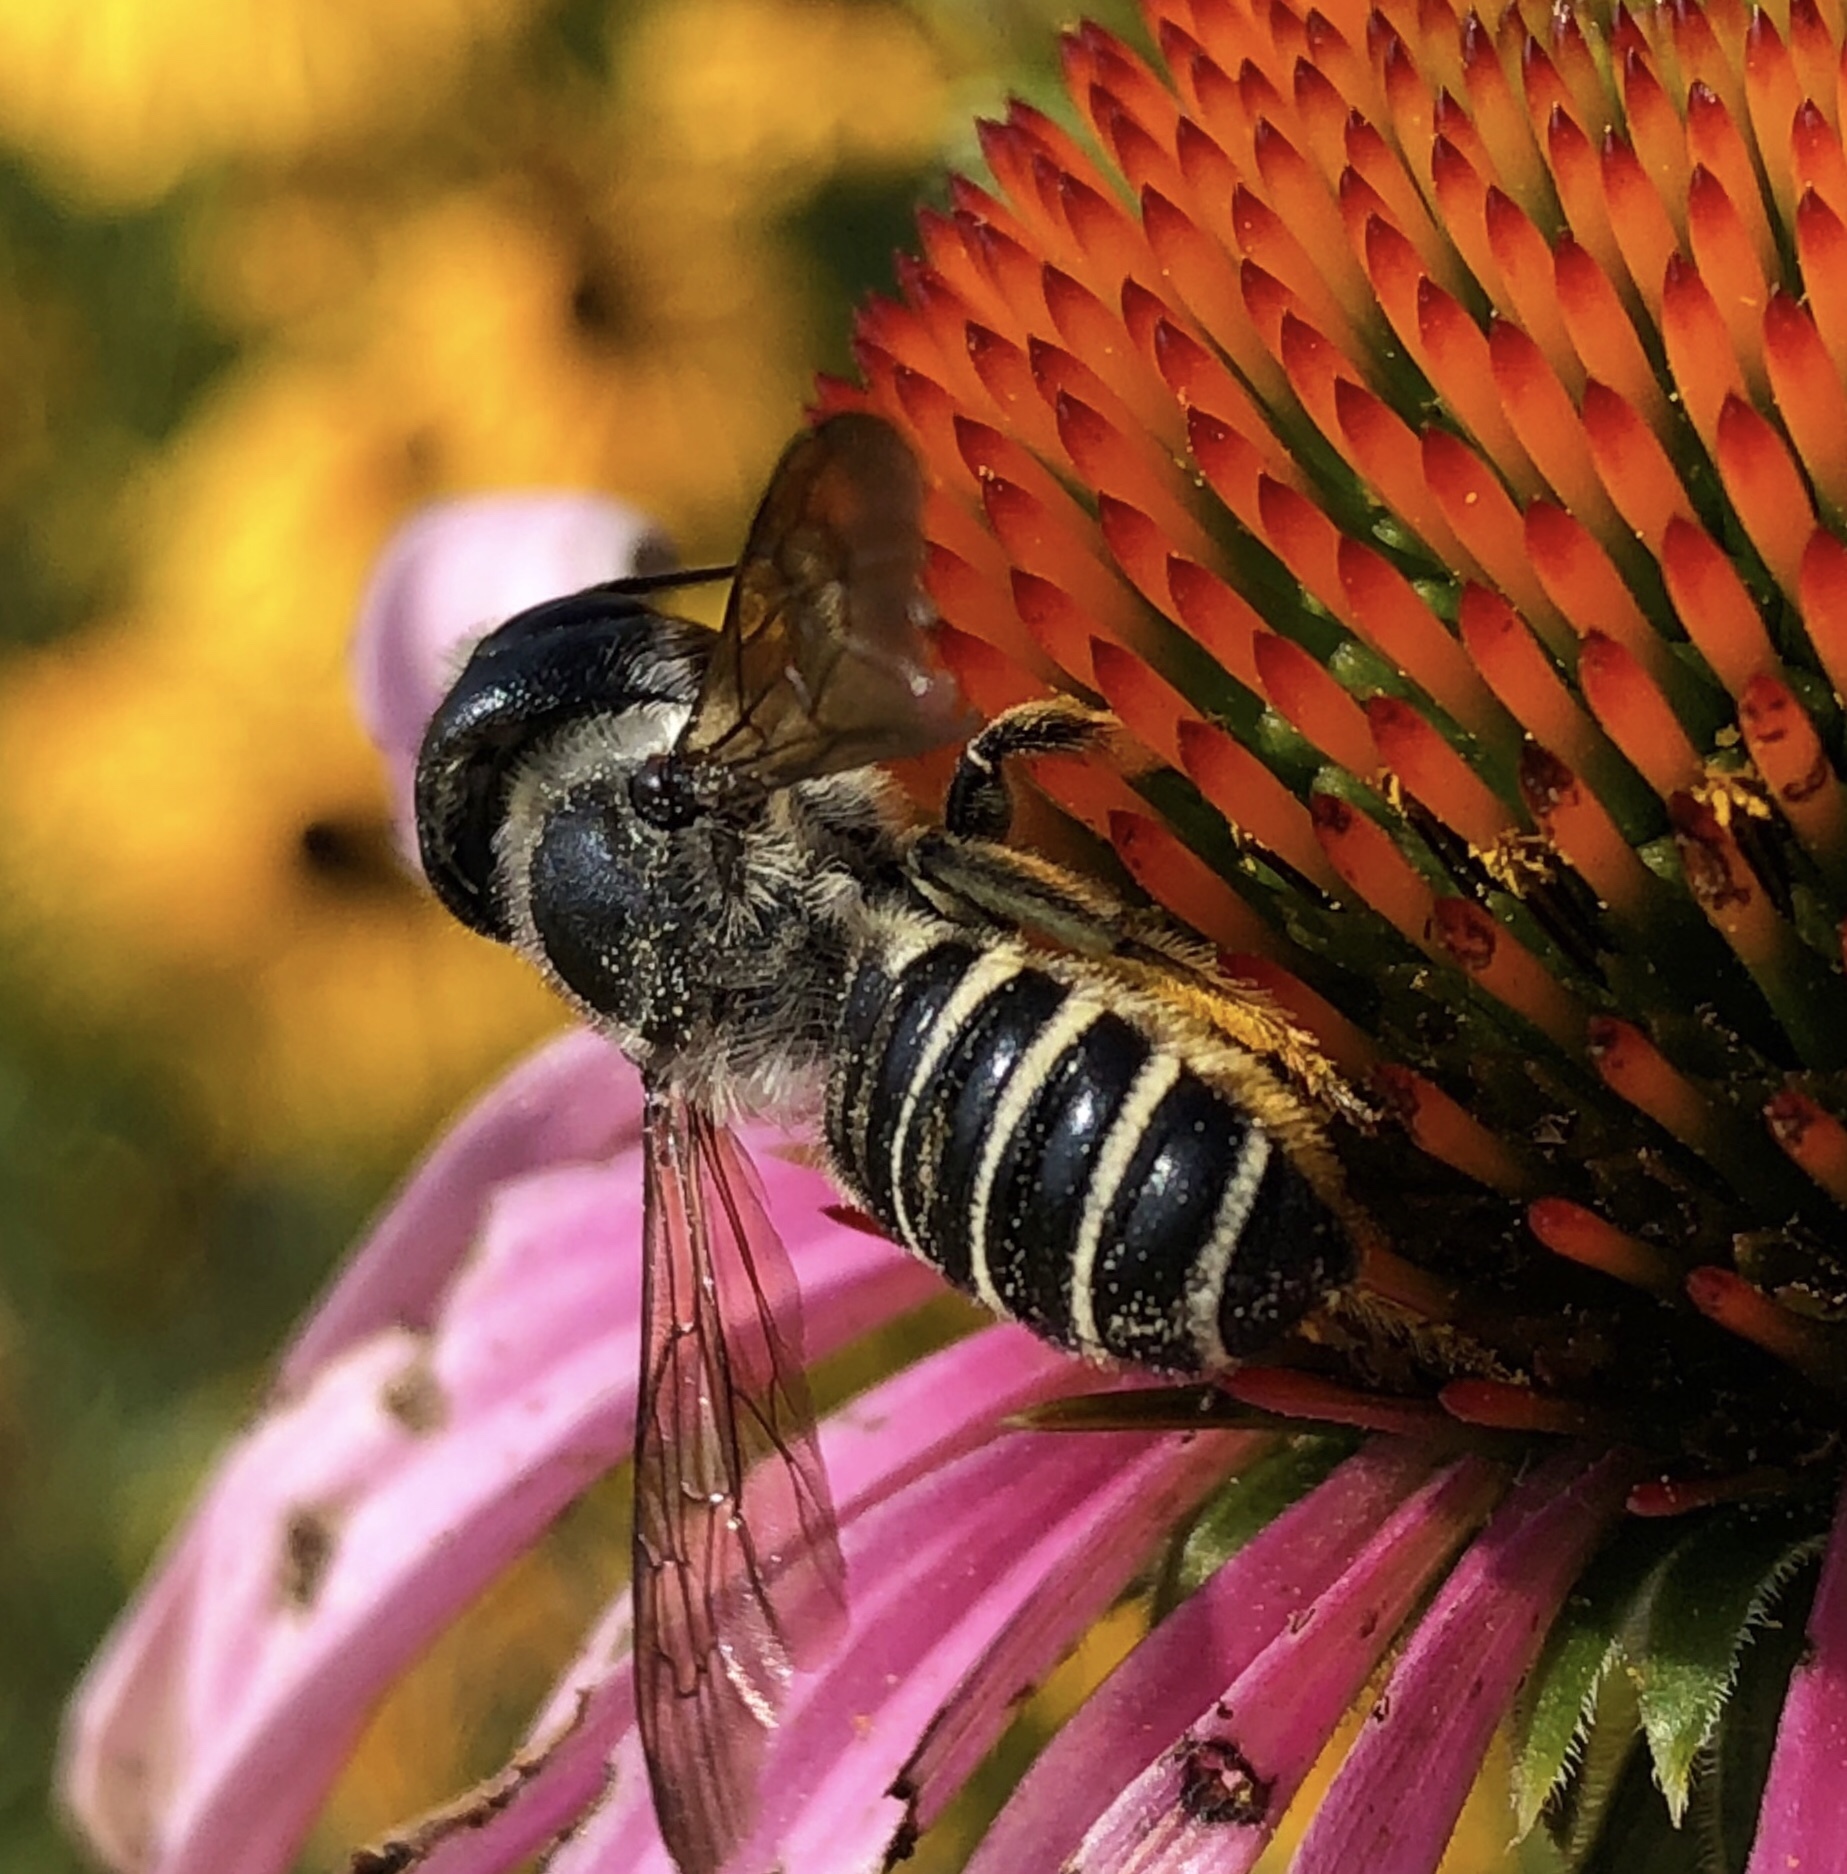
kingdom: Animalia
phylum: Arthropoda
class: Insecta
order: Hymenoptera
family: Megachilidae
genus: Megachile
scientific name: Megachile pugnata
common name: Pugnacious leafcutter bee
